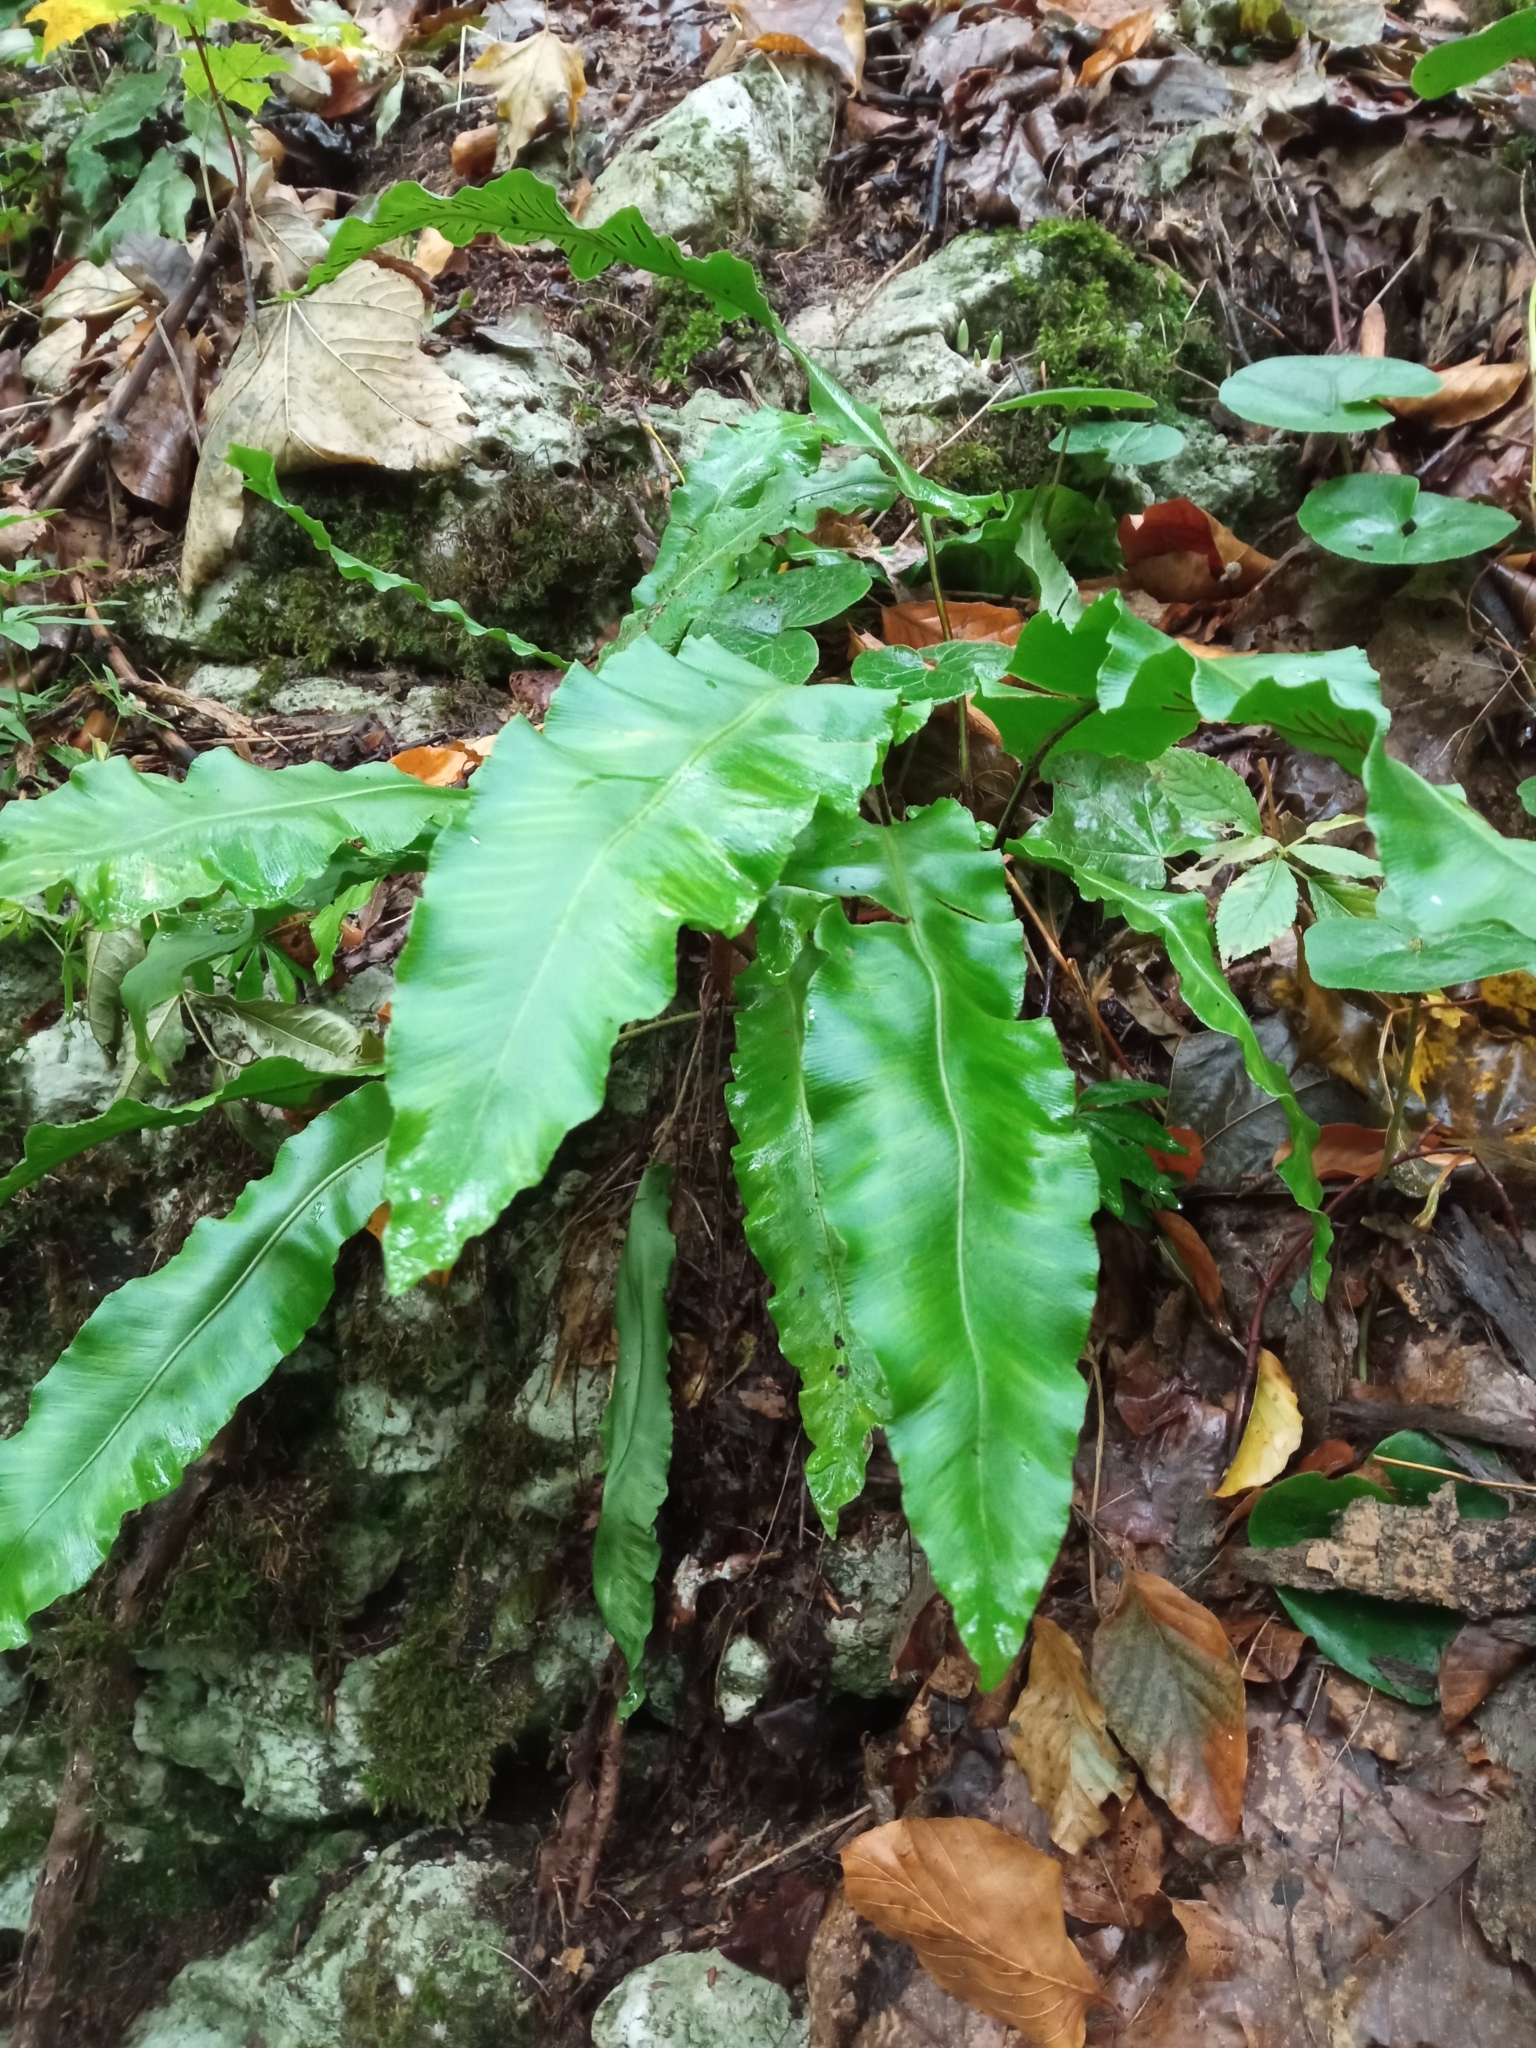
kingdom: Plantae
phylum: Tracheophyta
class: Polypodiopsida
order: Polypodiales
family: Aspleniaceae
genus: Asplenium
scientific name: Asplenium scolopendrium
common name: Hart's-tongue fern
